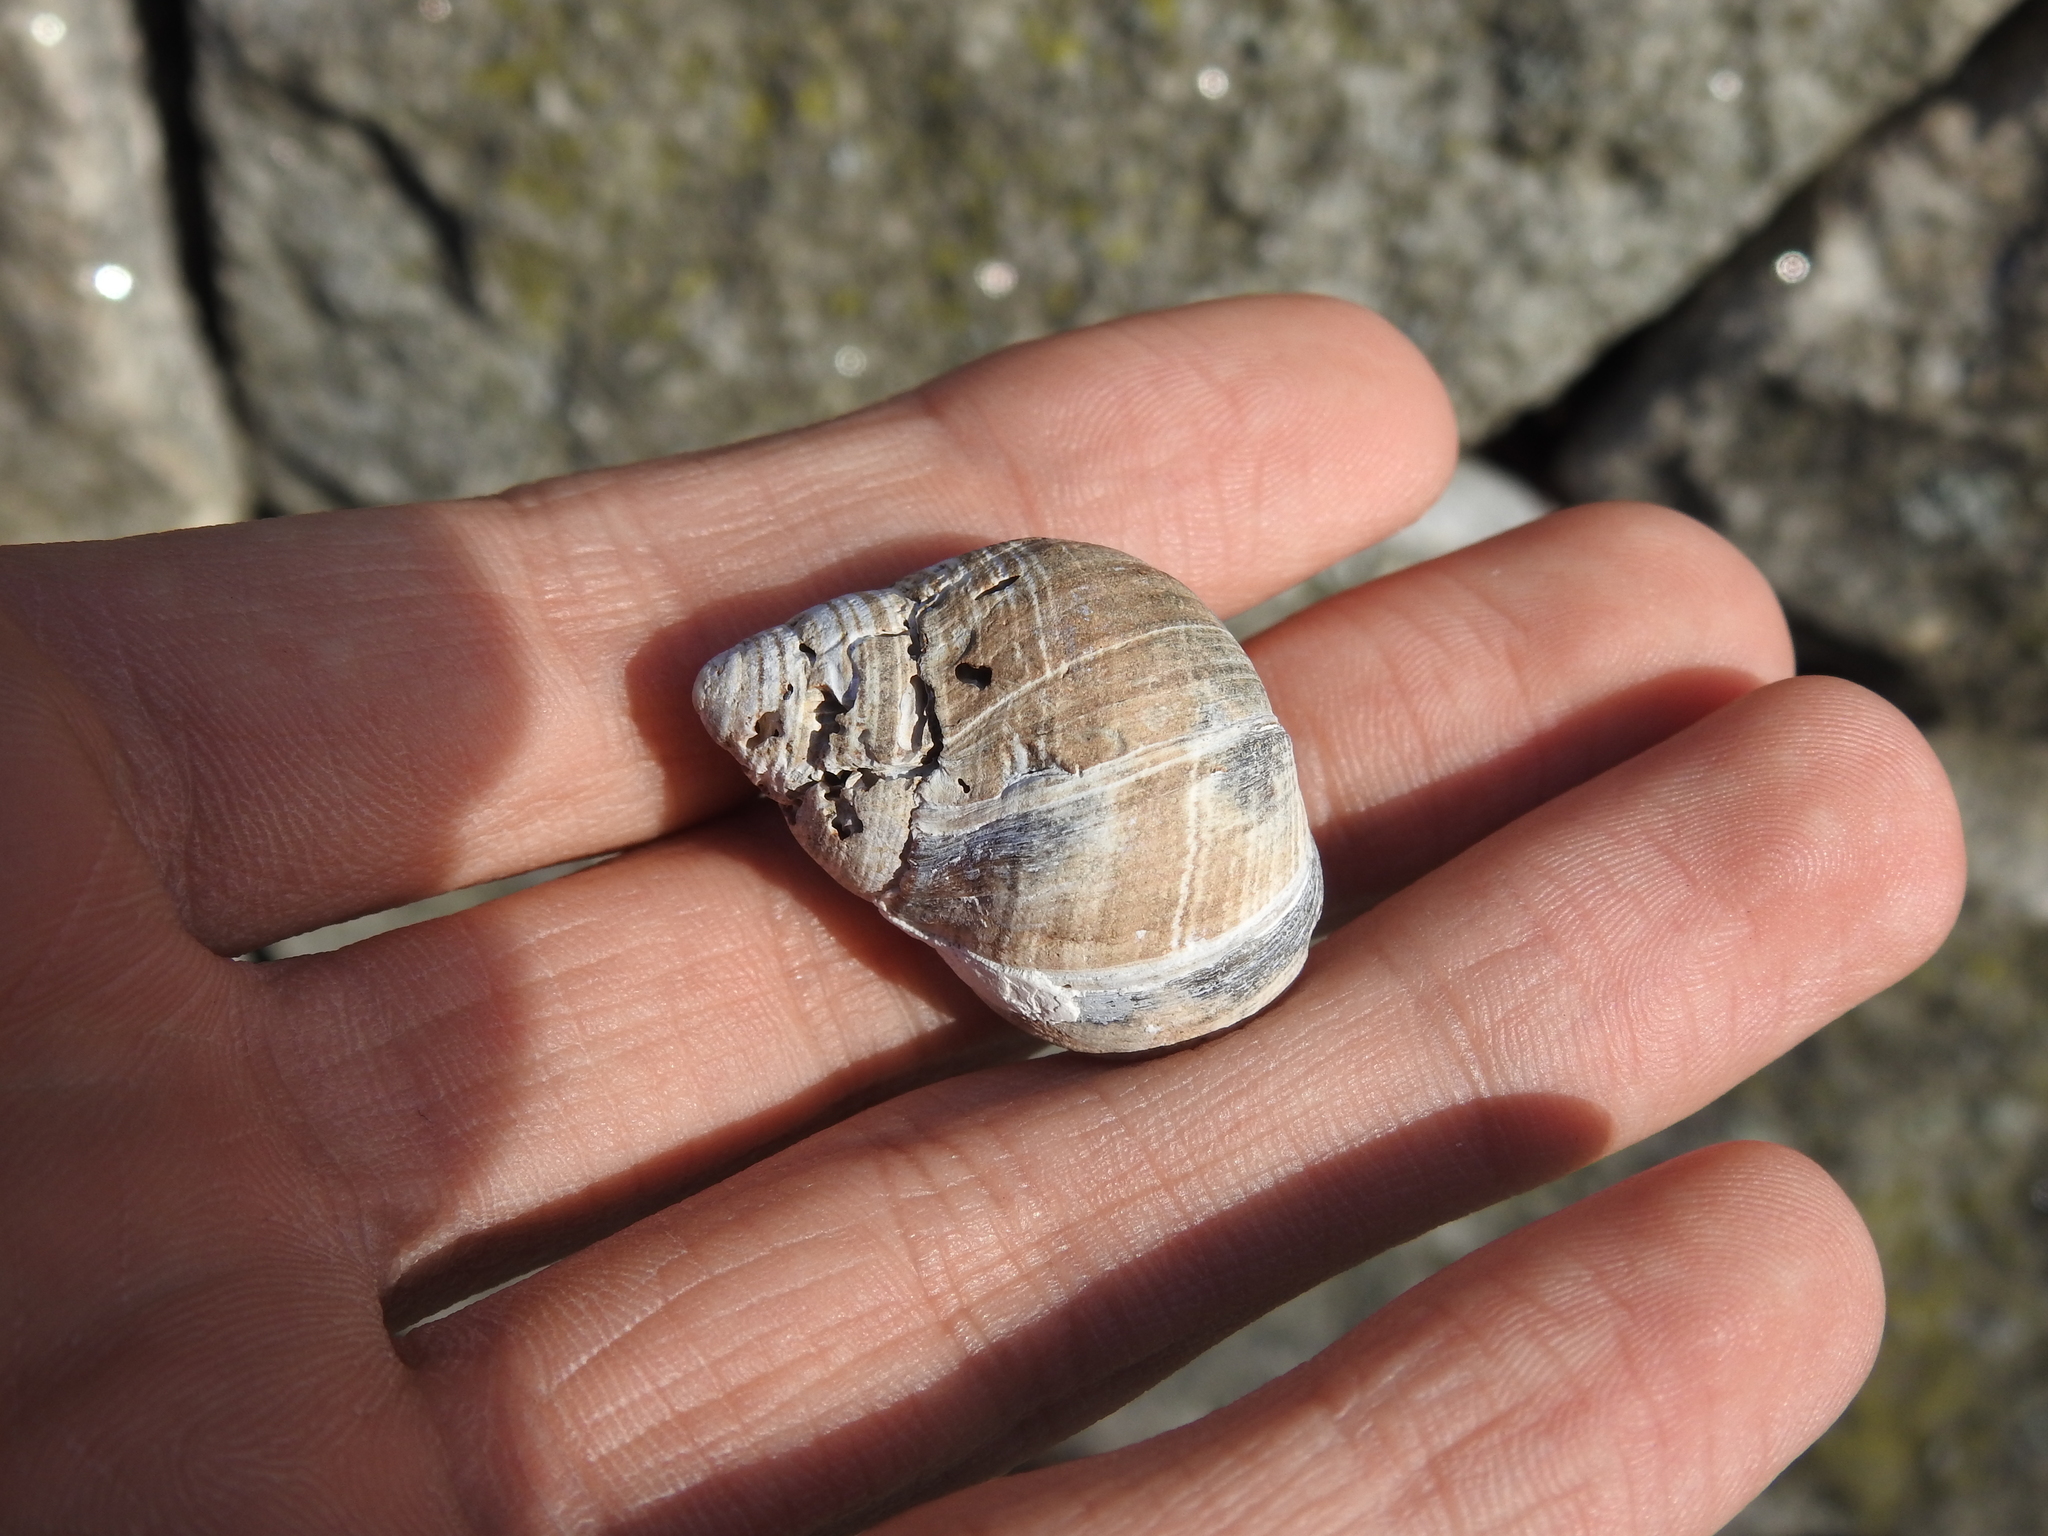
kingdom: Animalia
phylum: Mollusca
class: Gastropoda
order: Littorinimorpha
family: Littorinidae
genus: Littorina
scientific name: Littorina littorea
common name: Common periwinkle
